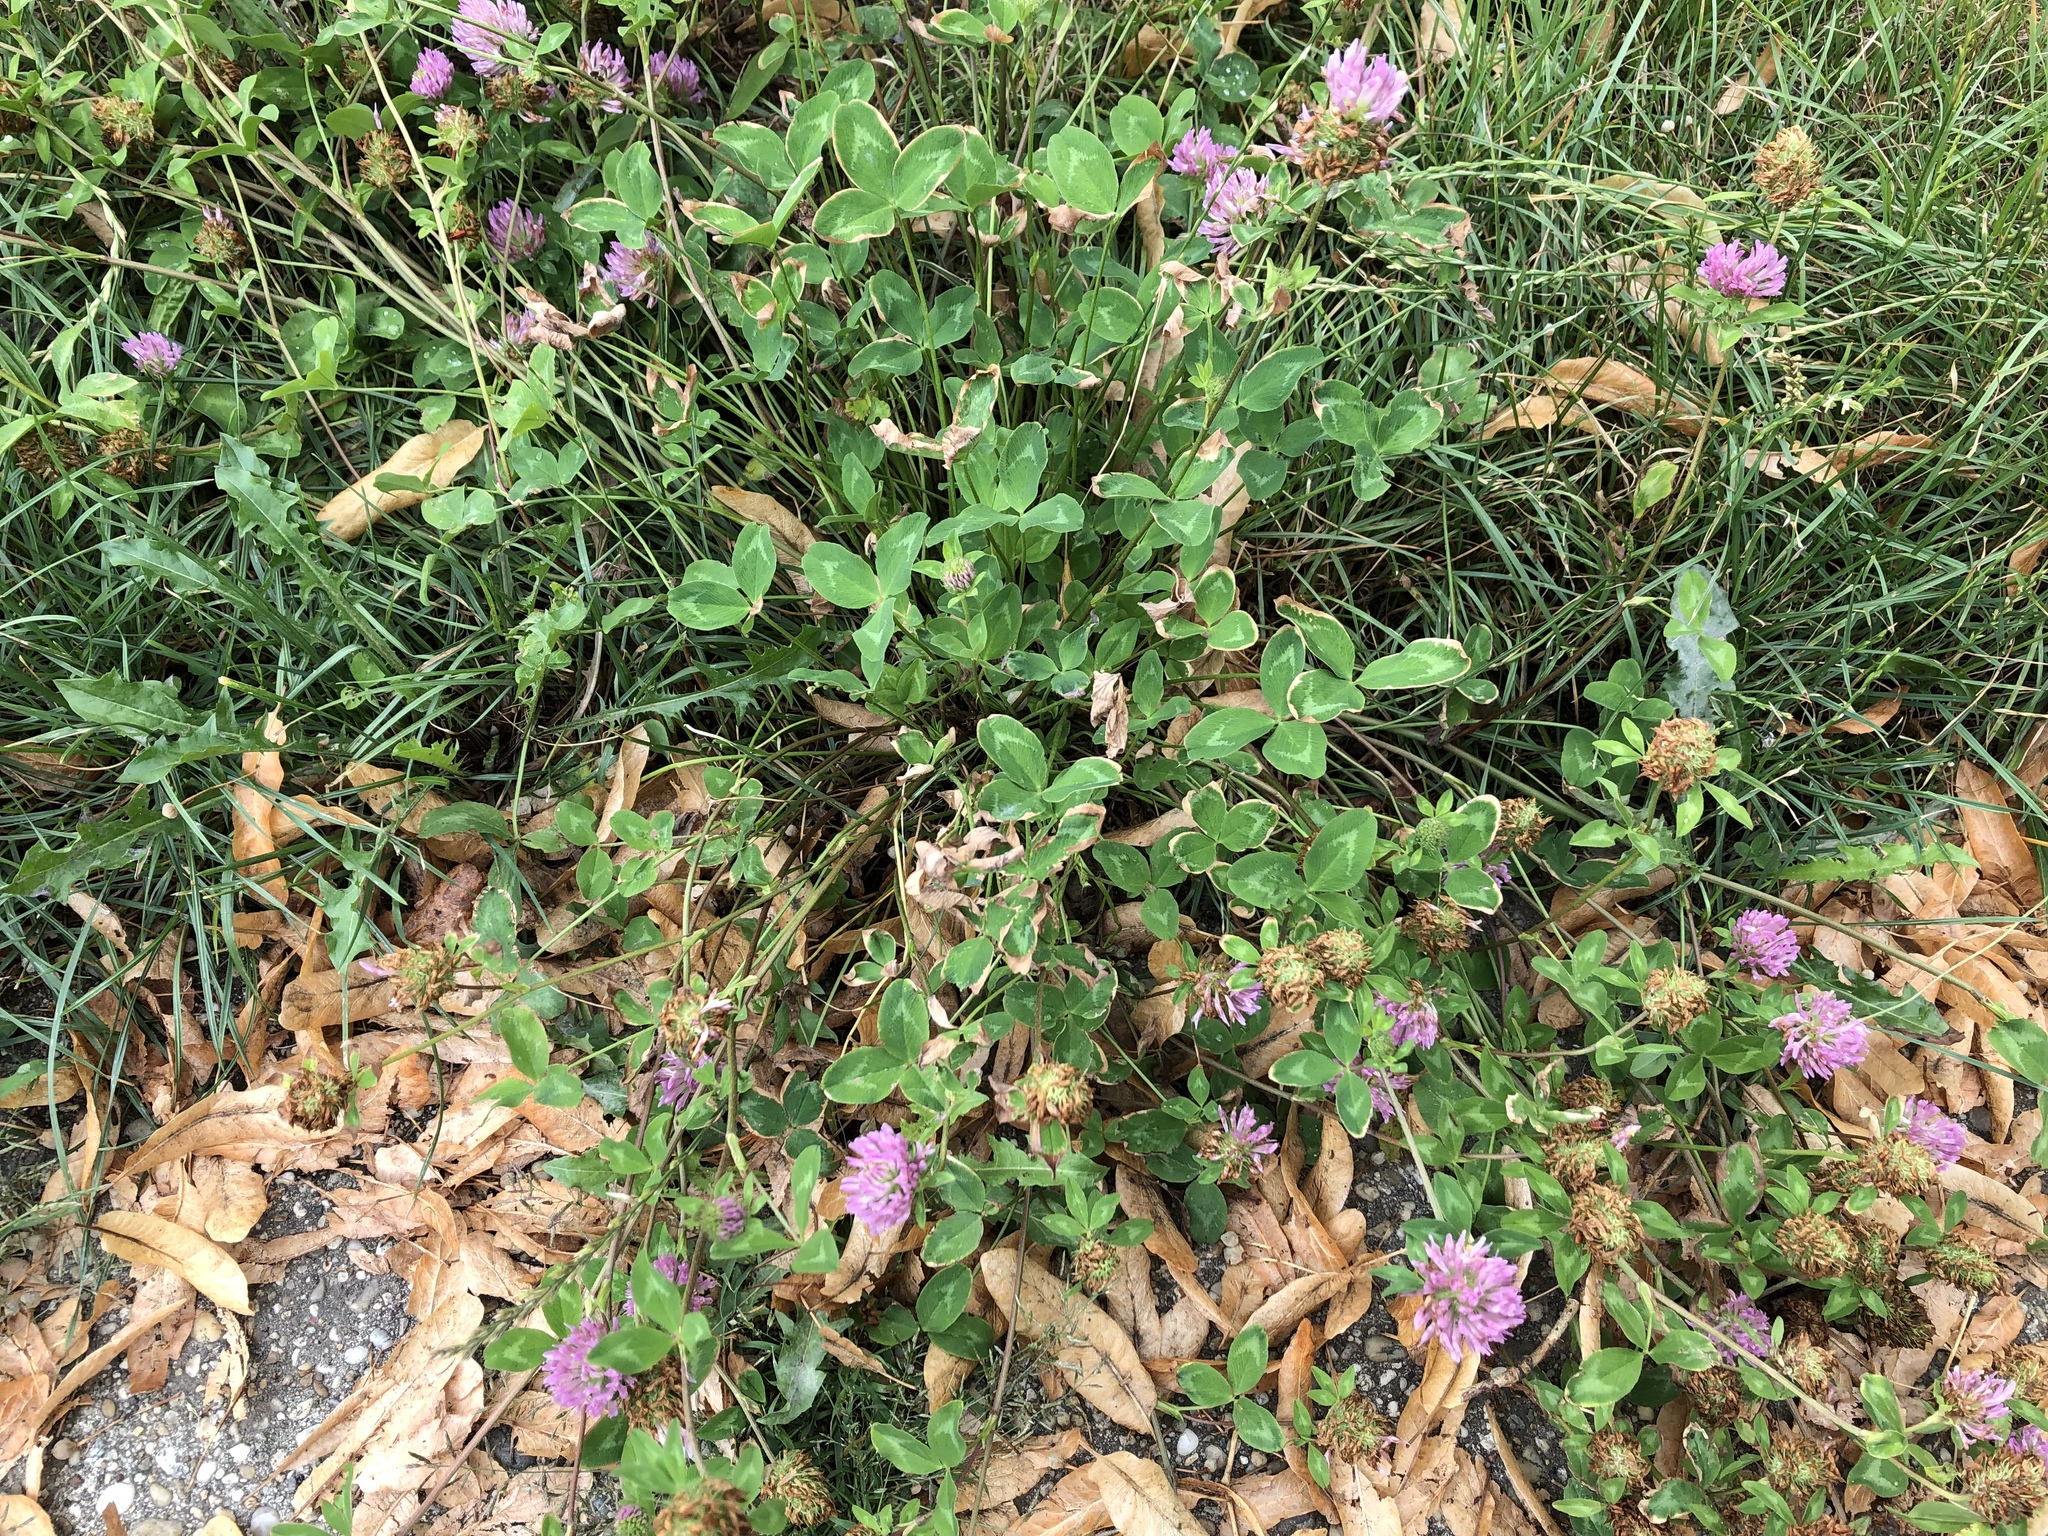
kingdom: Plantae
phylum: Tracheophyta
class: Magnoliopsida
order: Fabales
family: Fabaceae
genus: Trifolium
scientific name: Trifolium pratense
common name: Red clover
